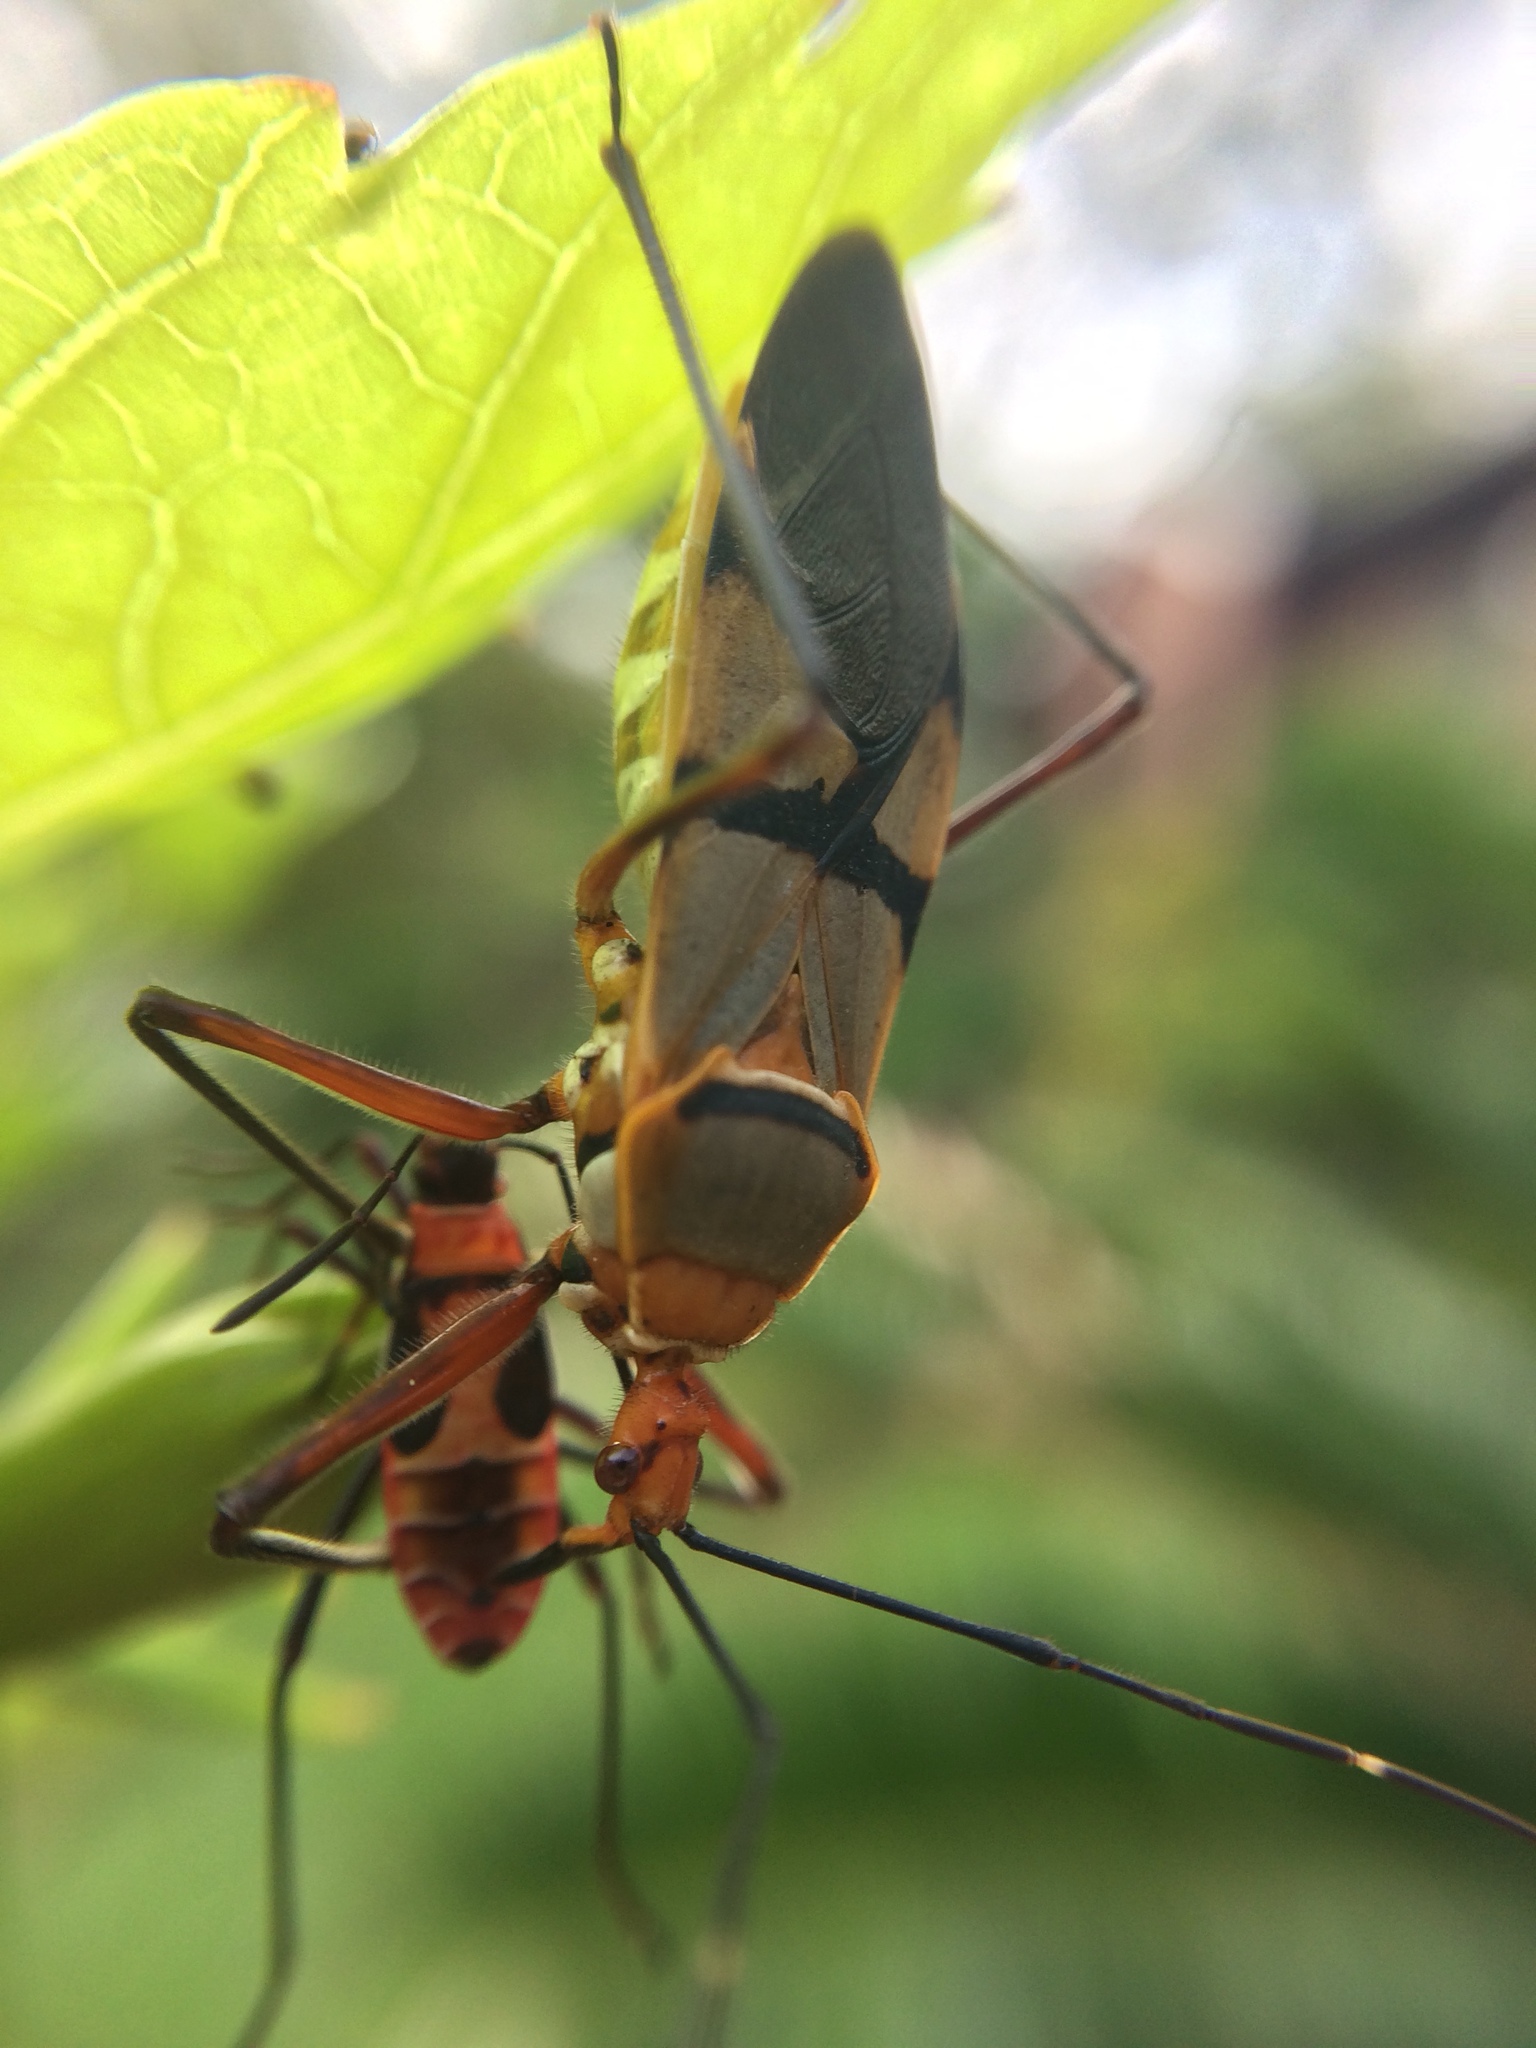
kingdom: Animalia
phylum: Arthropoda
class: Insecta
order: Hemiptera
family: Reduviidae
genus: Phonoctonus
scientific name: Phonoctonus fasciatus
